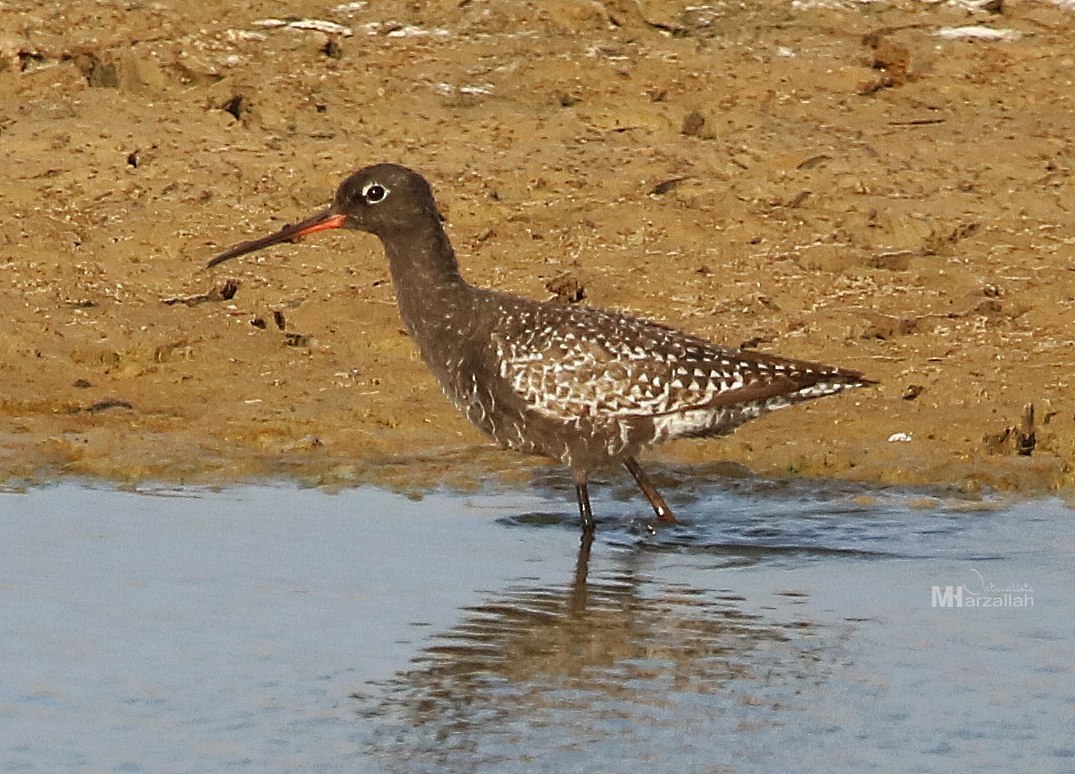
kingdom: Animalia
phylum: Chordata
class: Aves
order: Charadriiformes
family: Scolopacidae
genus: Tringa
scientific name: Tringa erythropus
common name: Spotted redshank
